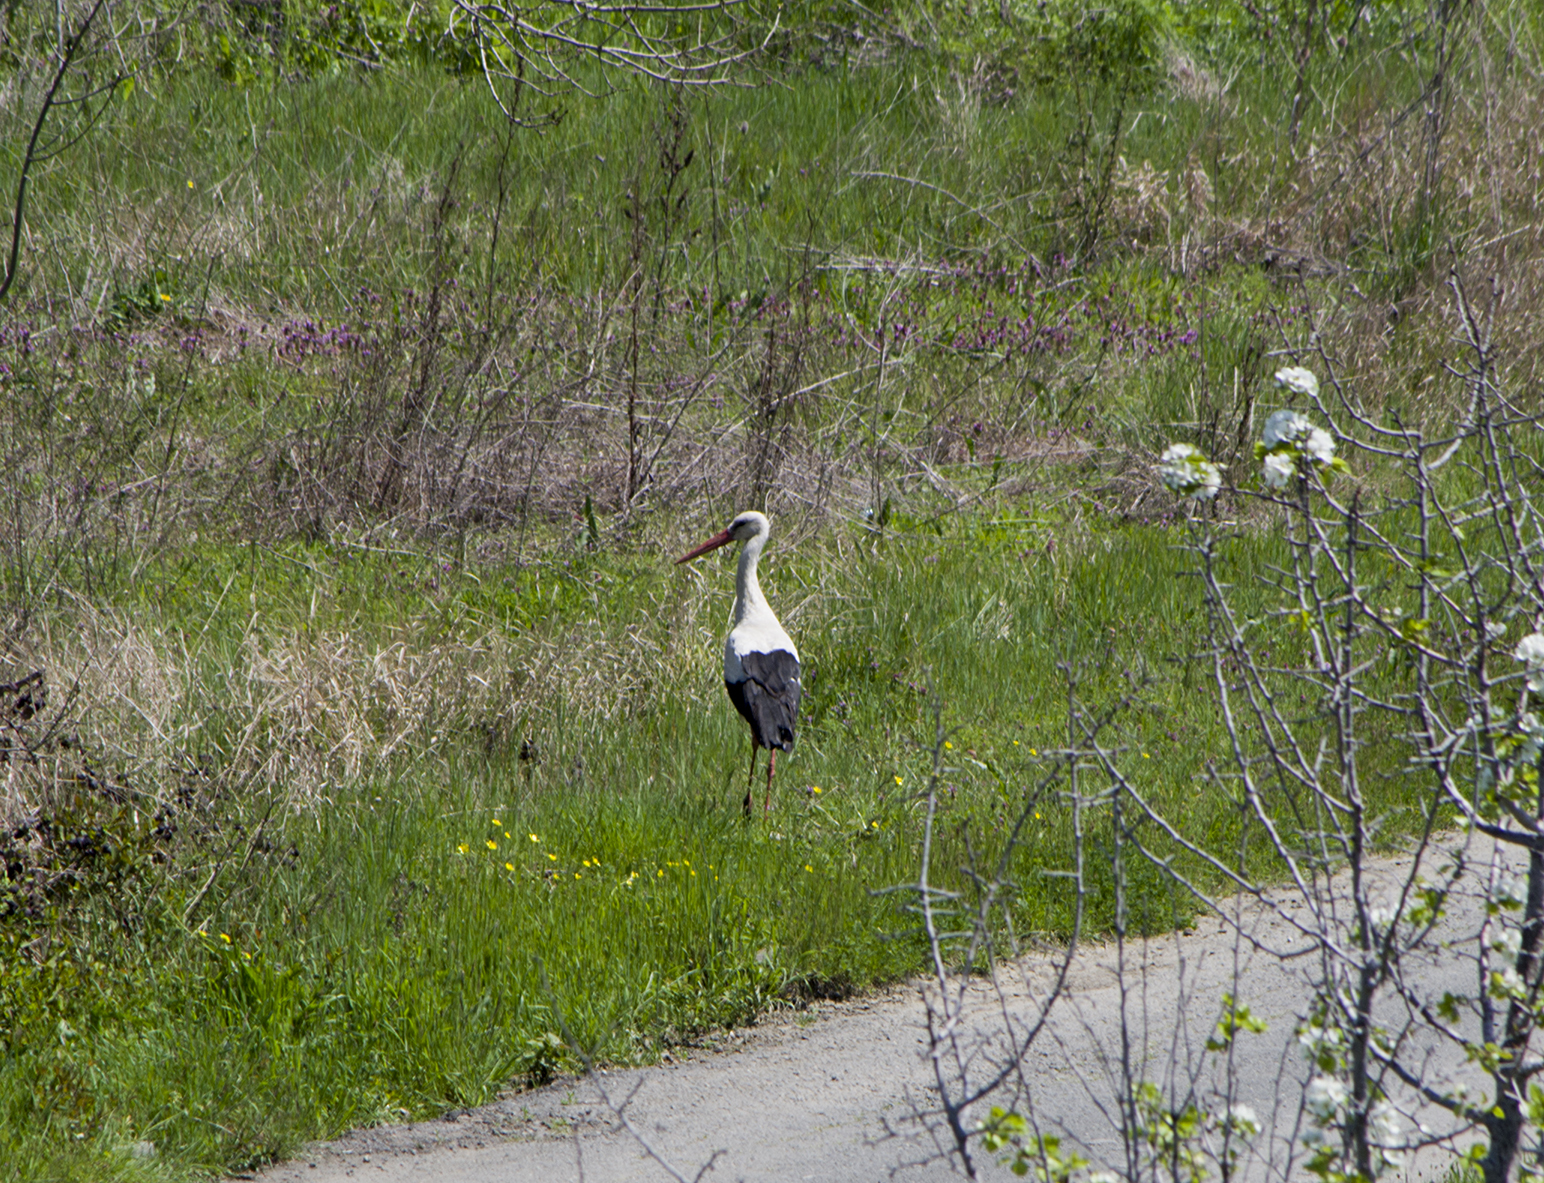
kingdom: Animalia
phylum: Chordata
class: Aves
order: Ciconiiformes
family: Ciconiidae
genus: Ciconia
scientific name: Ciconia ciconia
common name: White stork
